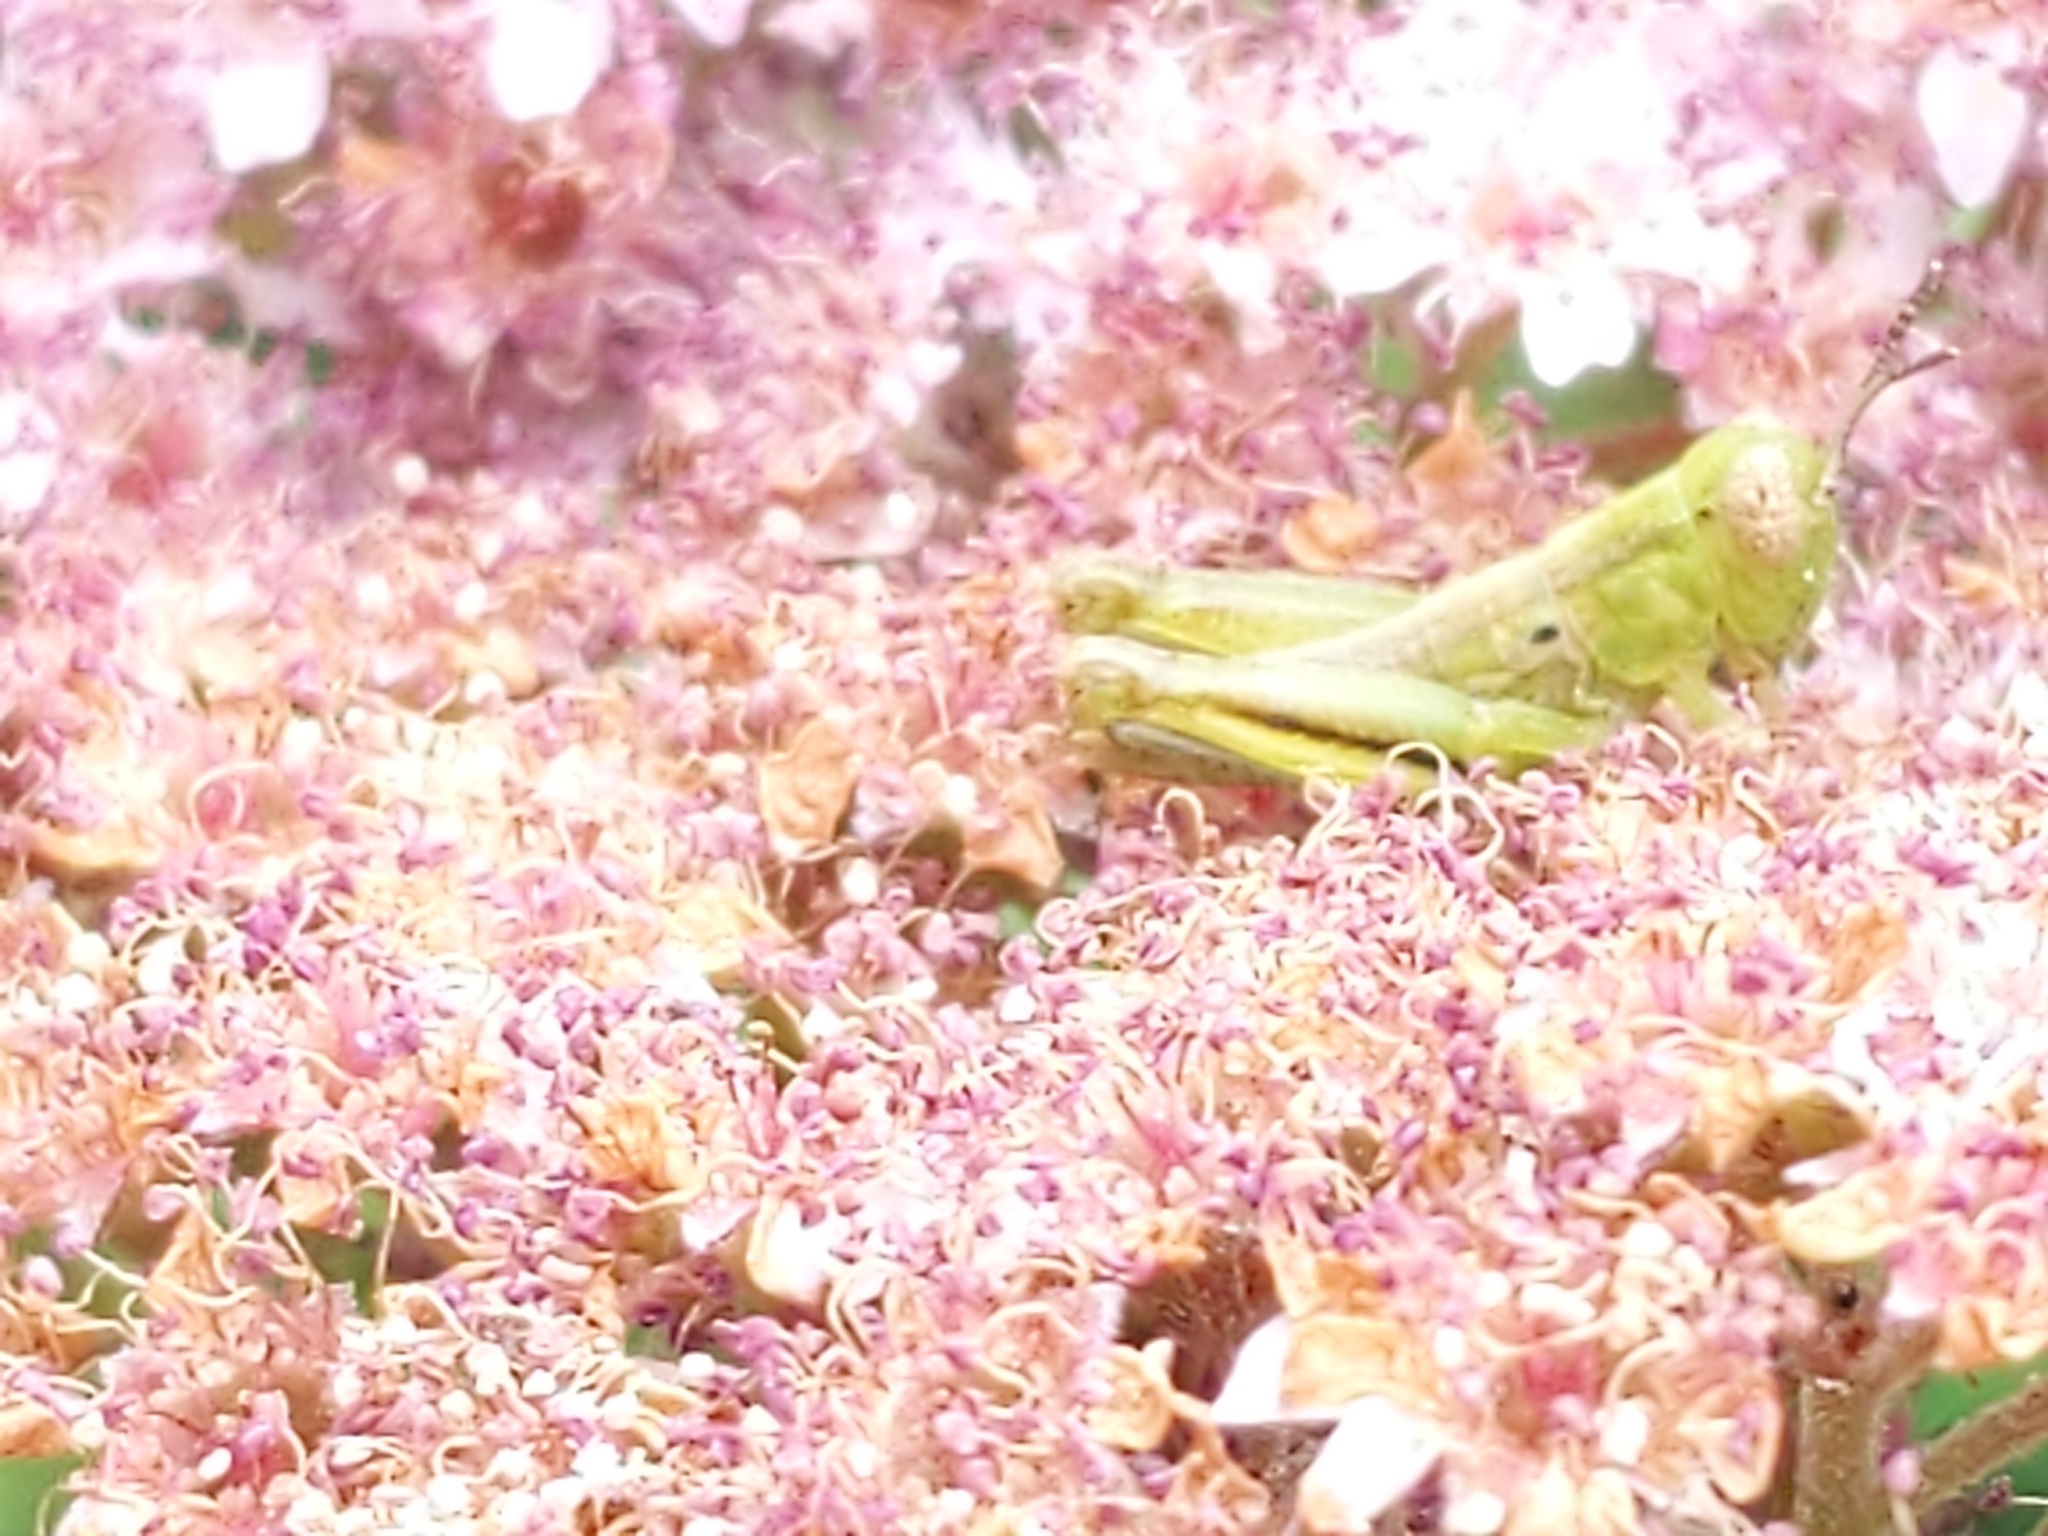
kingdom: Animalia
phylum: Arthropoda
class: Insecta
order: Orthoptera
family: Acrididae
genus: Melanoplus
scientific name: Melanoplus
